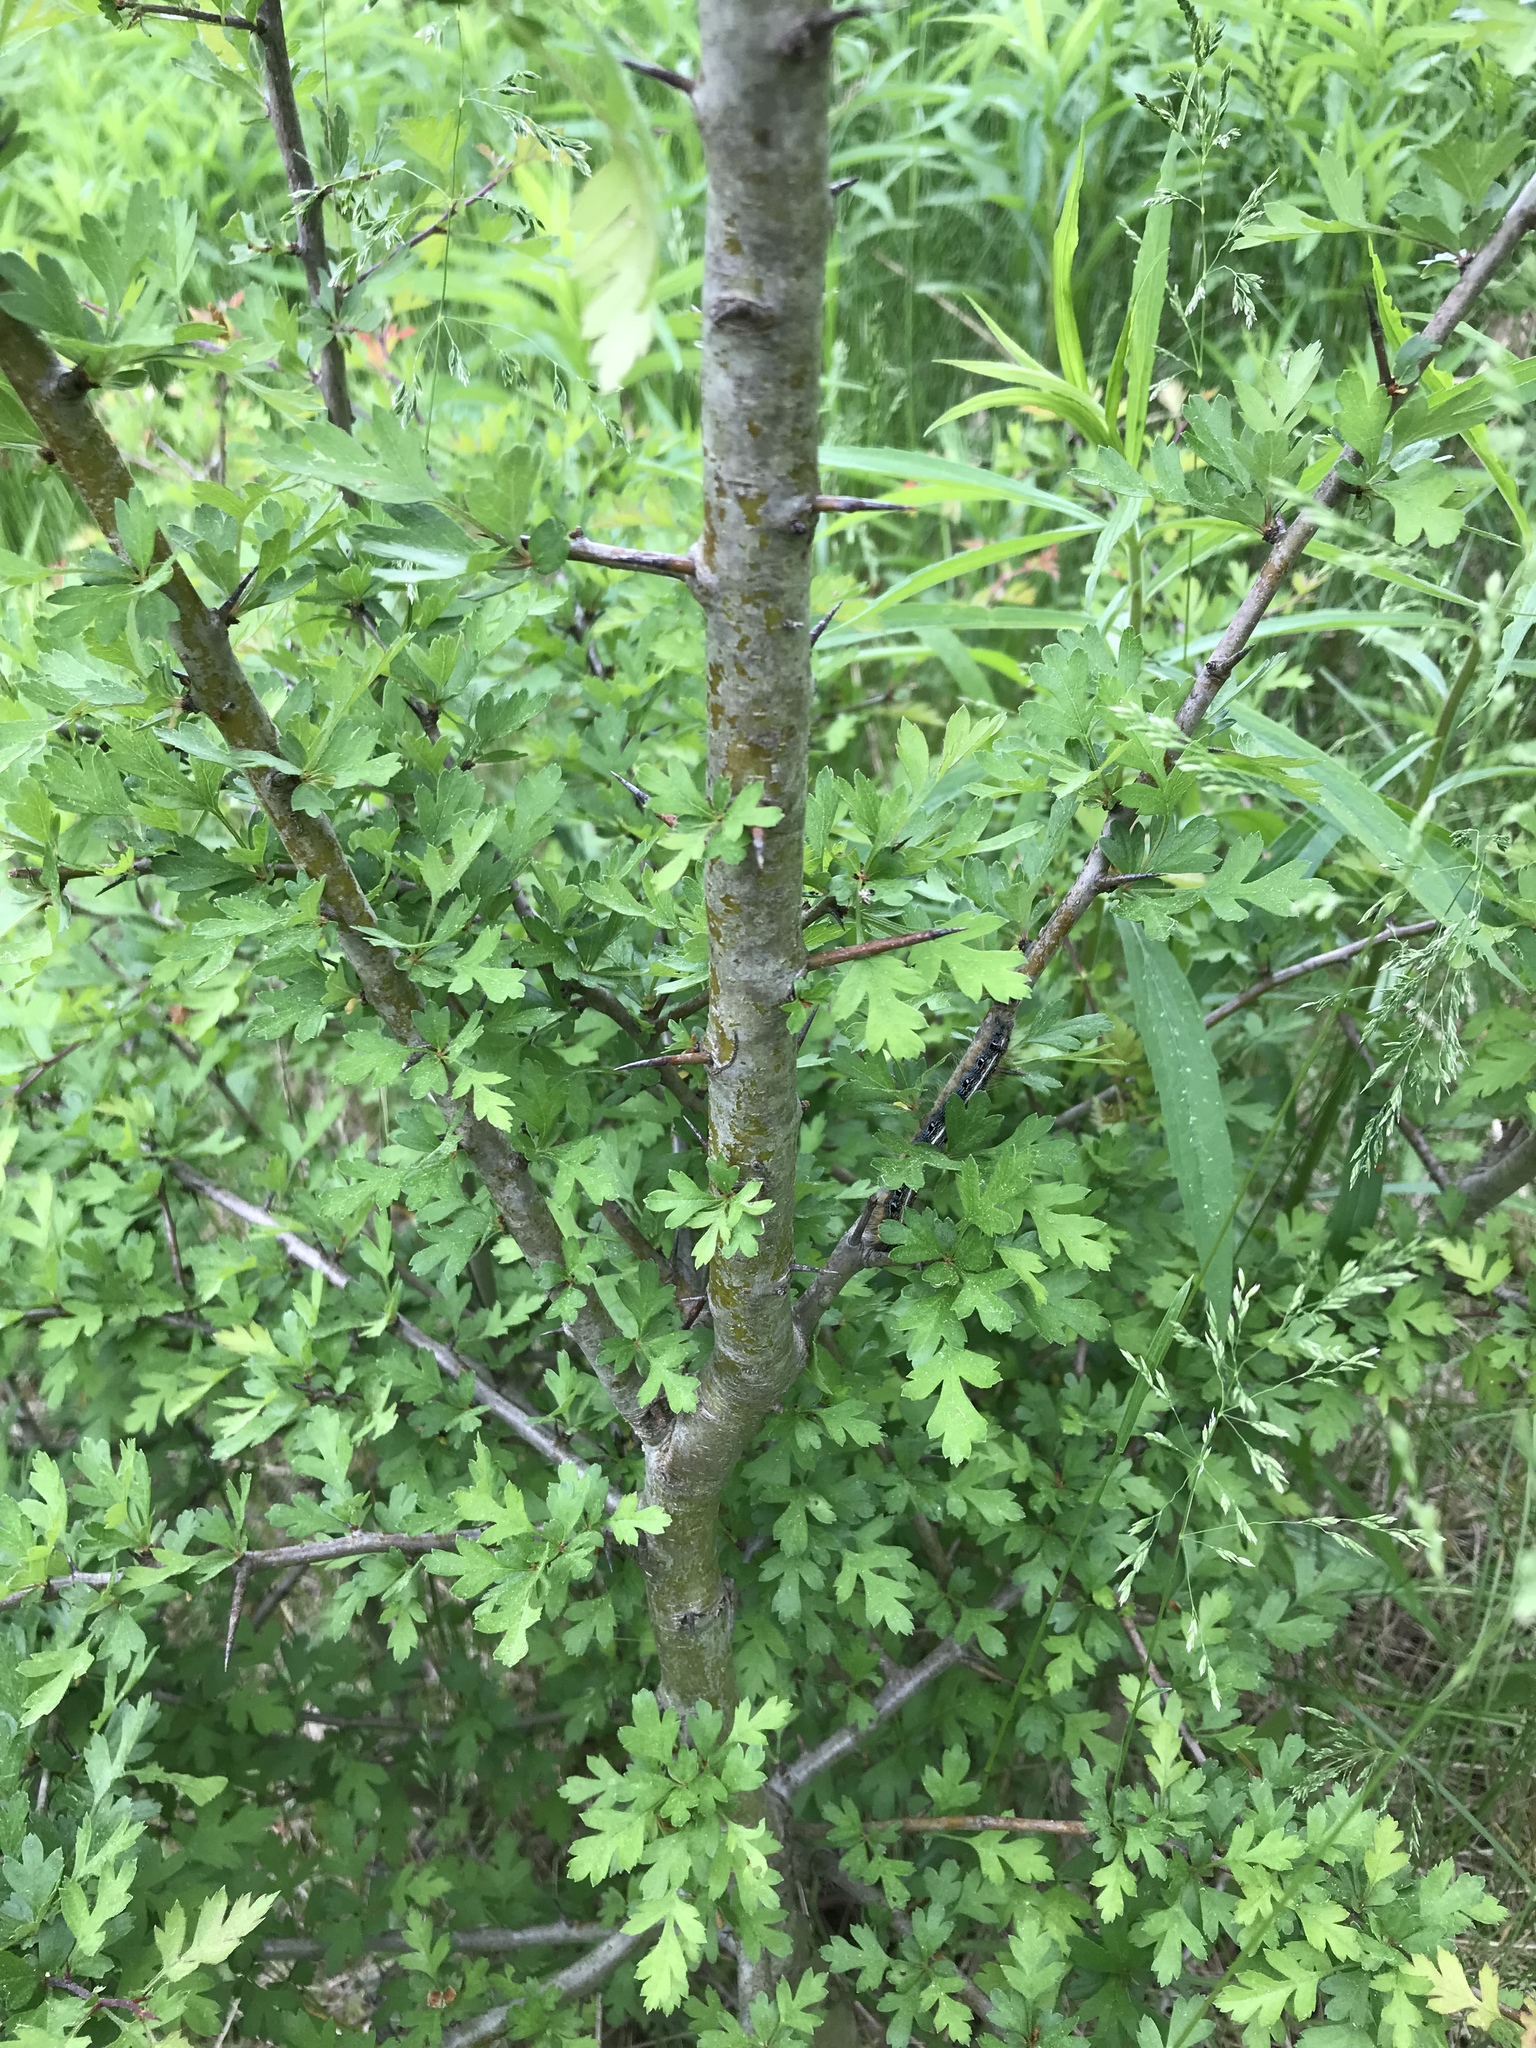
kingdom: Plantae
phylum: Tracheophyta
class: Magnoliopsida
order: Rosales
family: Rosaceae
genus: Crataegus
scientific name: Crataegus monogyna
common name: Hawthorn
